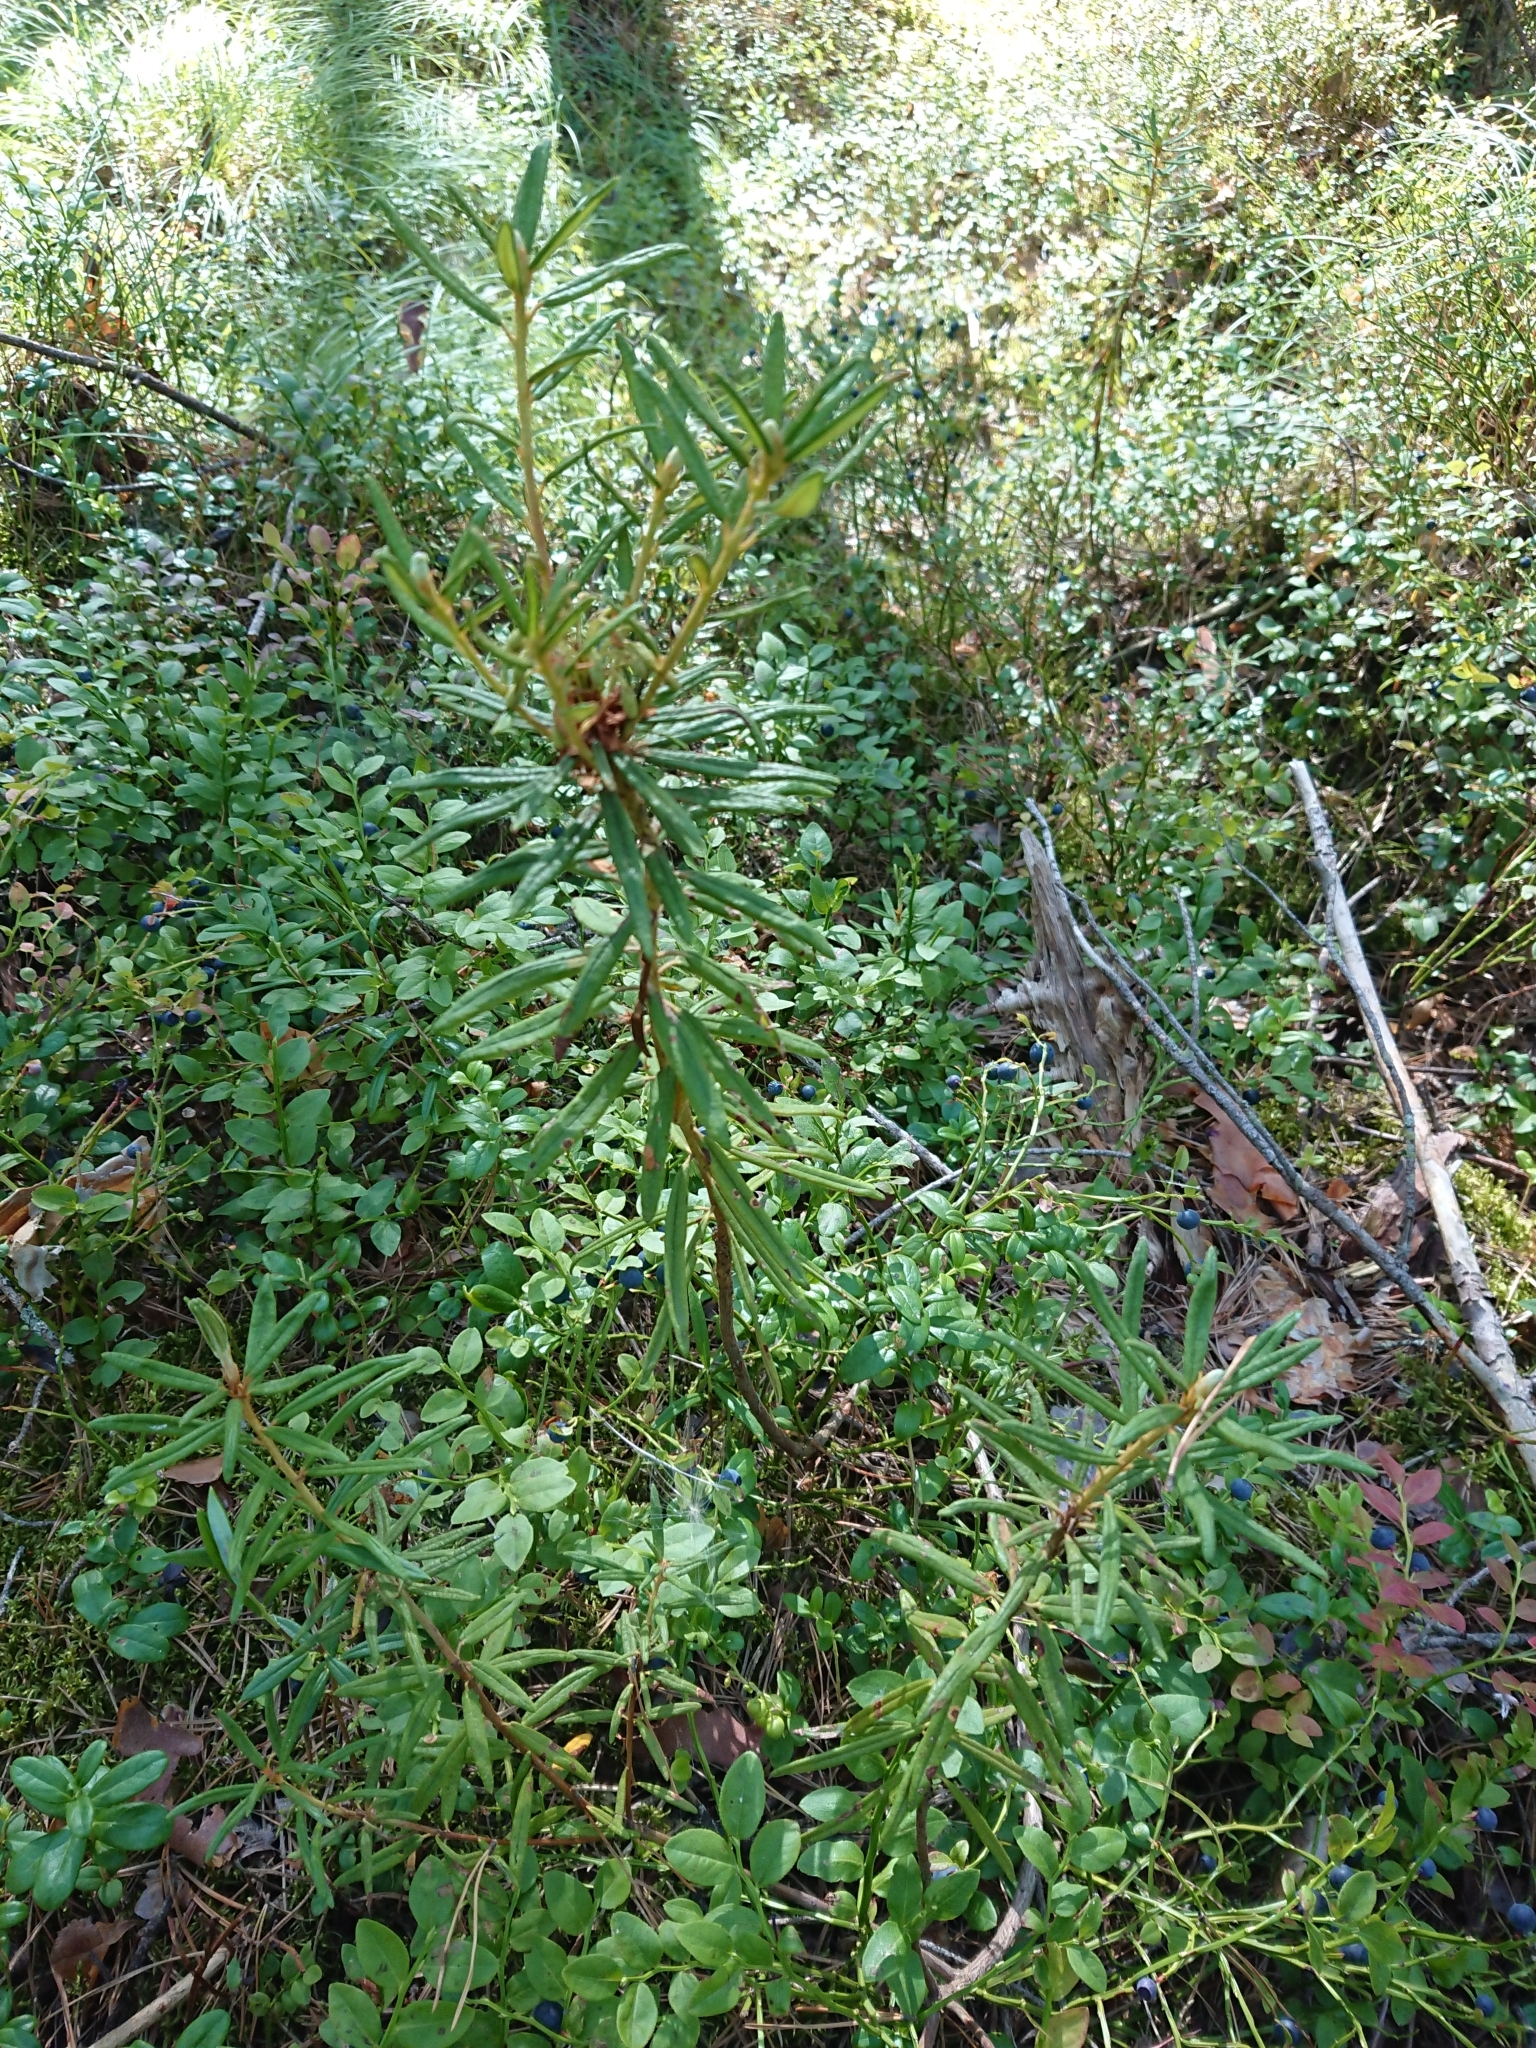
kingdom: Plantae
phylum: Tracheophyta
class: Magnoliopsida
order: Ericales
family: Ericaceae
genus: Rhododendron
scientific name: Rhododendron tomentosum
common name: Marsh labrador tea
